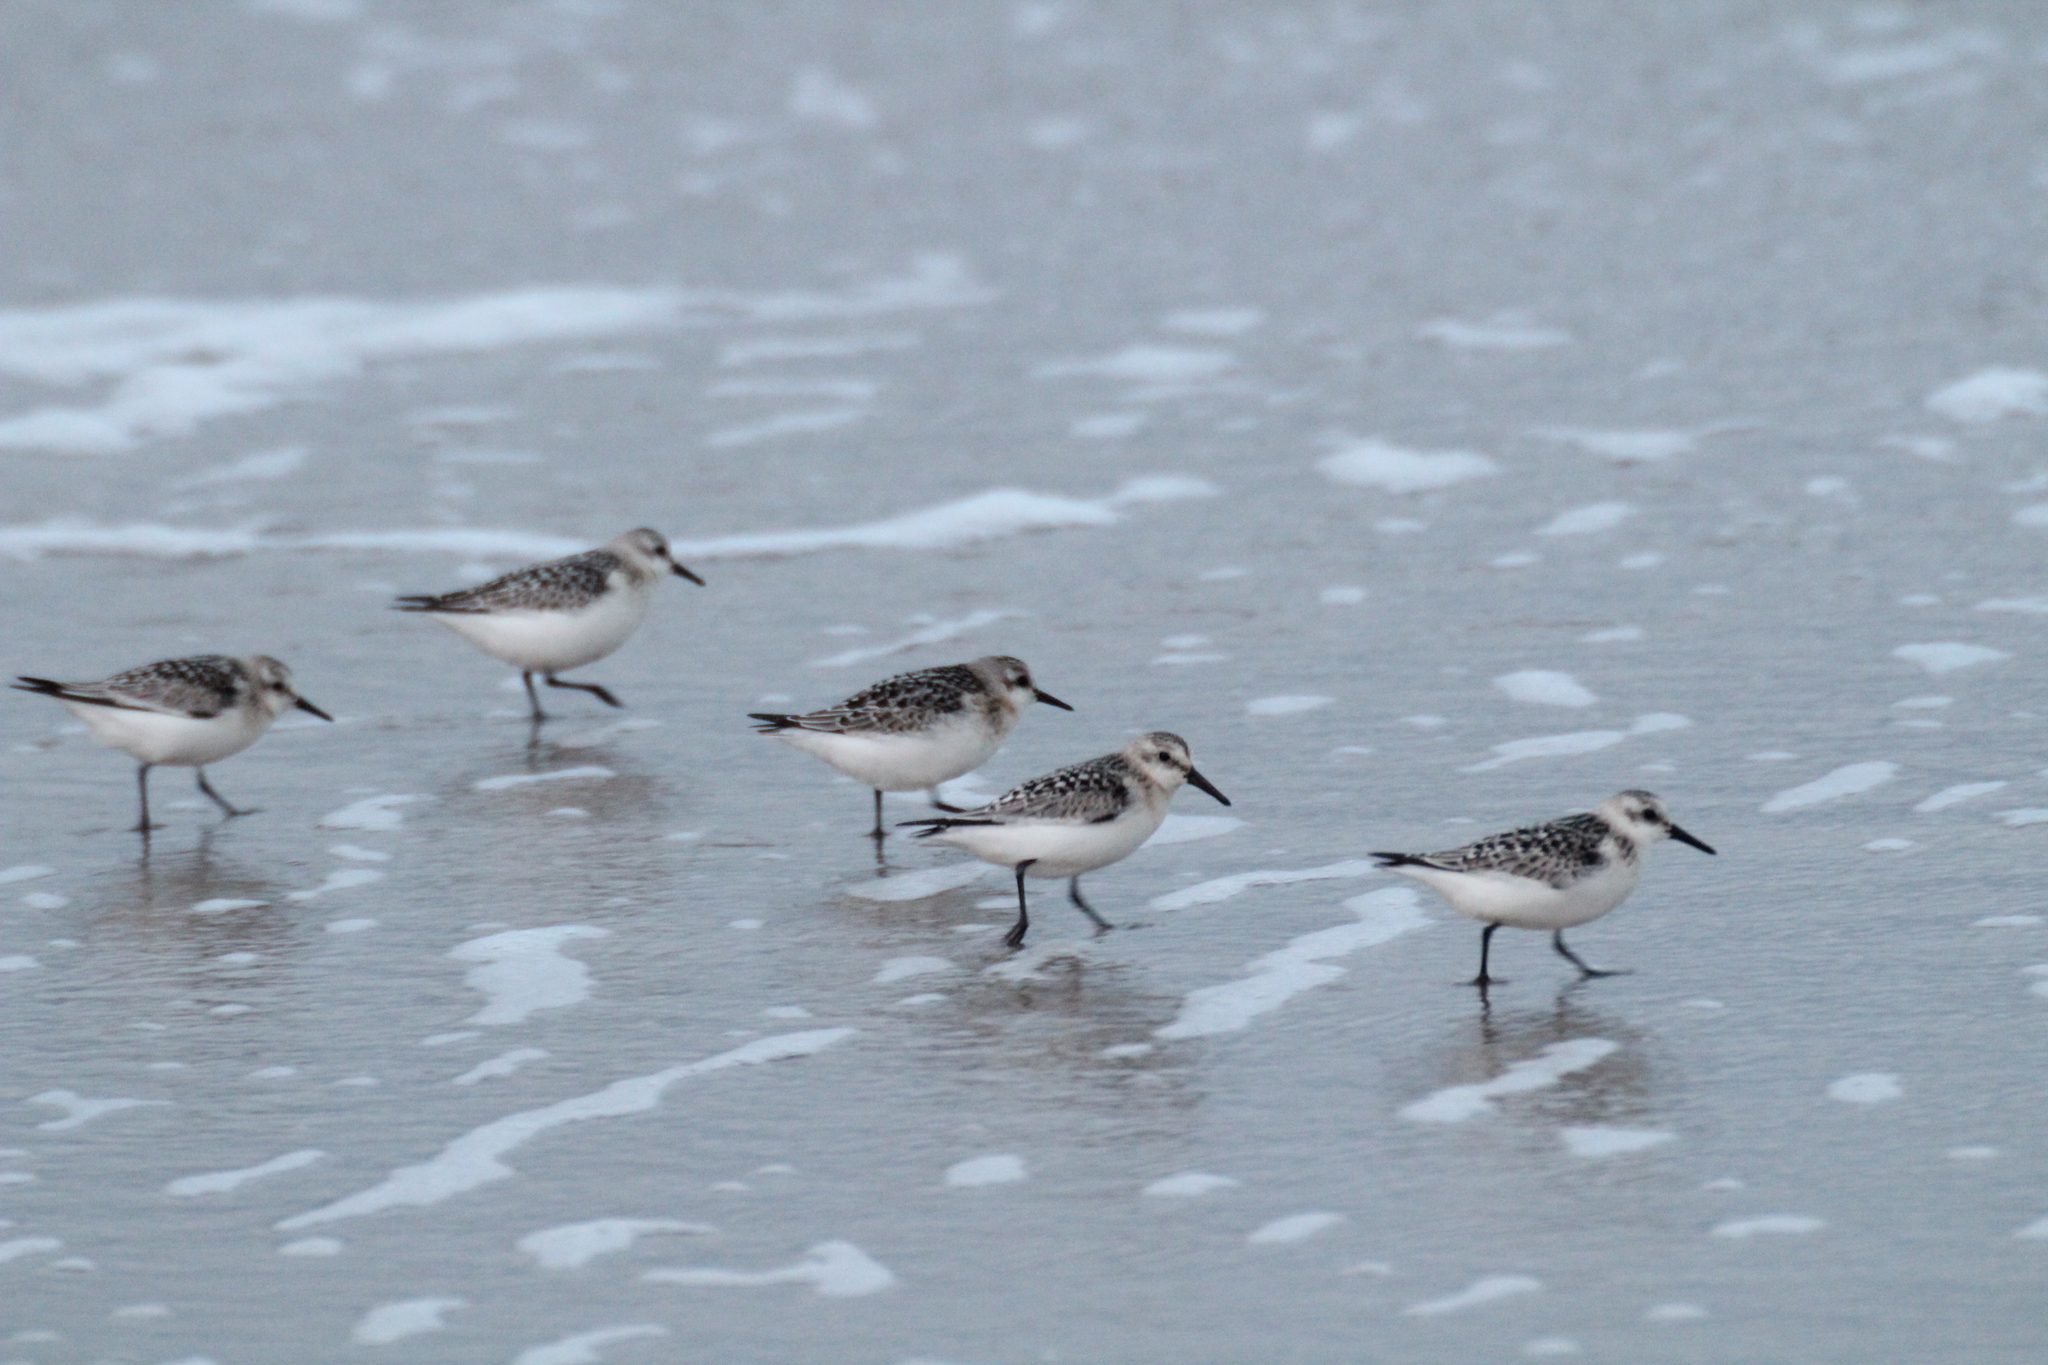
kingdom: Animalia
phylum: Chordata
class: Aves
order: Charadriiformes
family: Scolopacidae
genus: Calidris
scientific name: Calidris alba
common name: Sanderling
